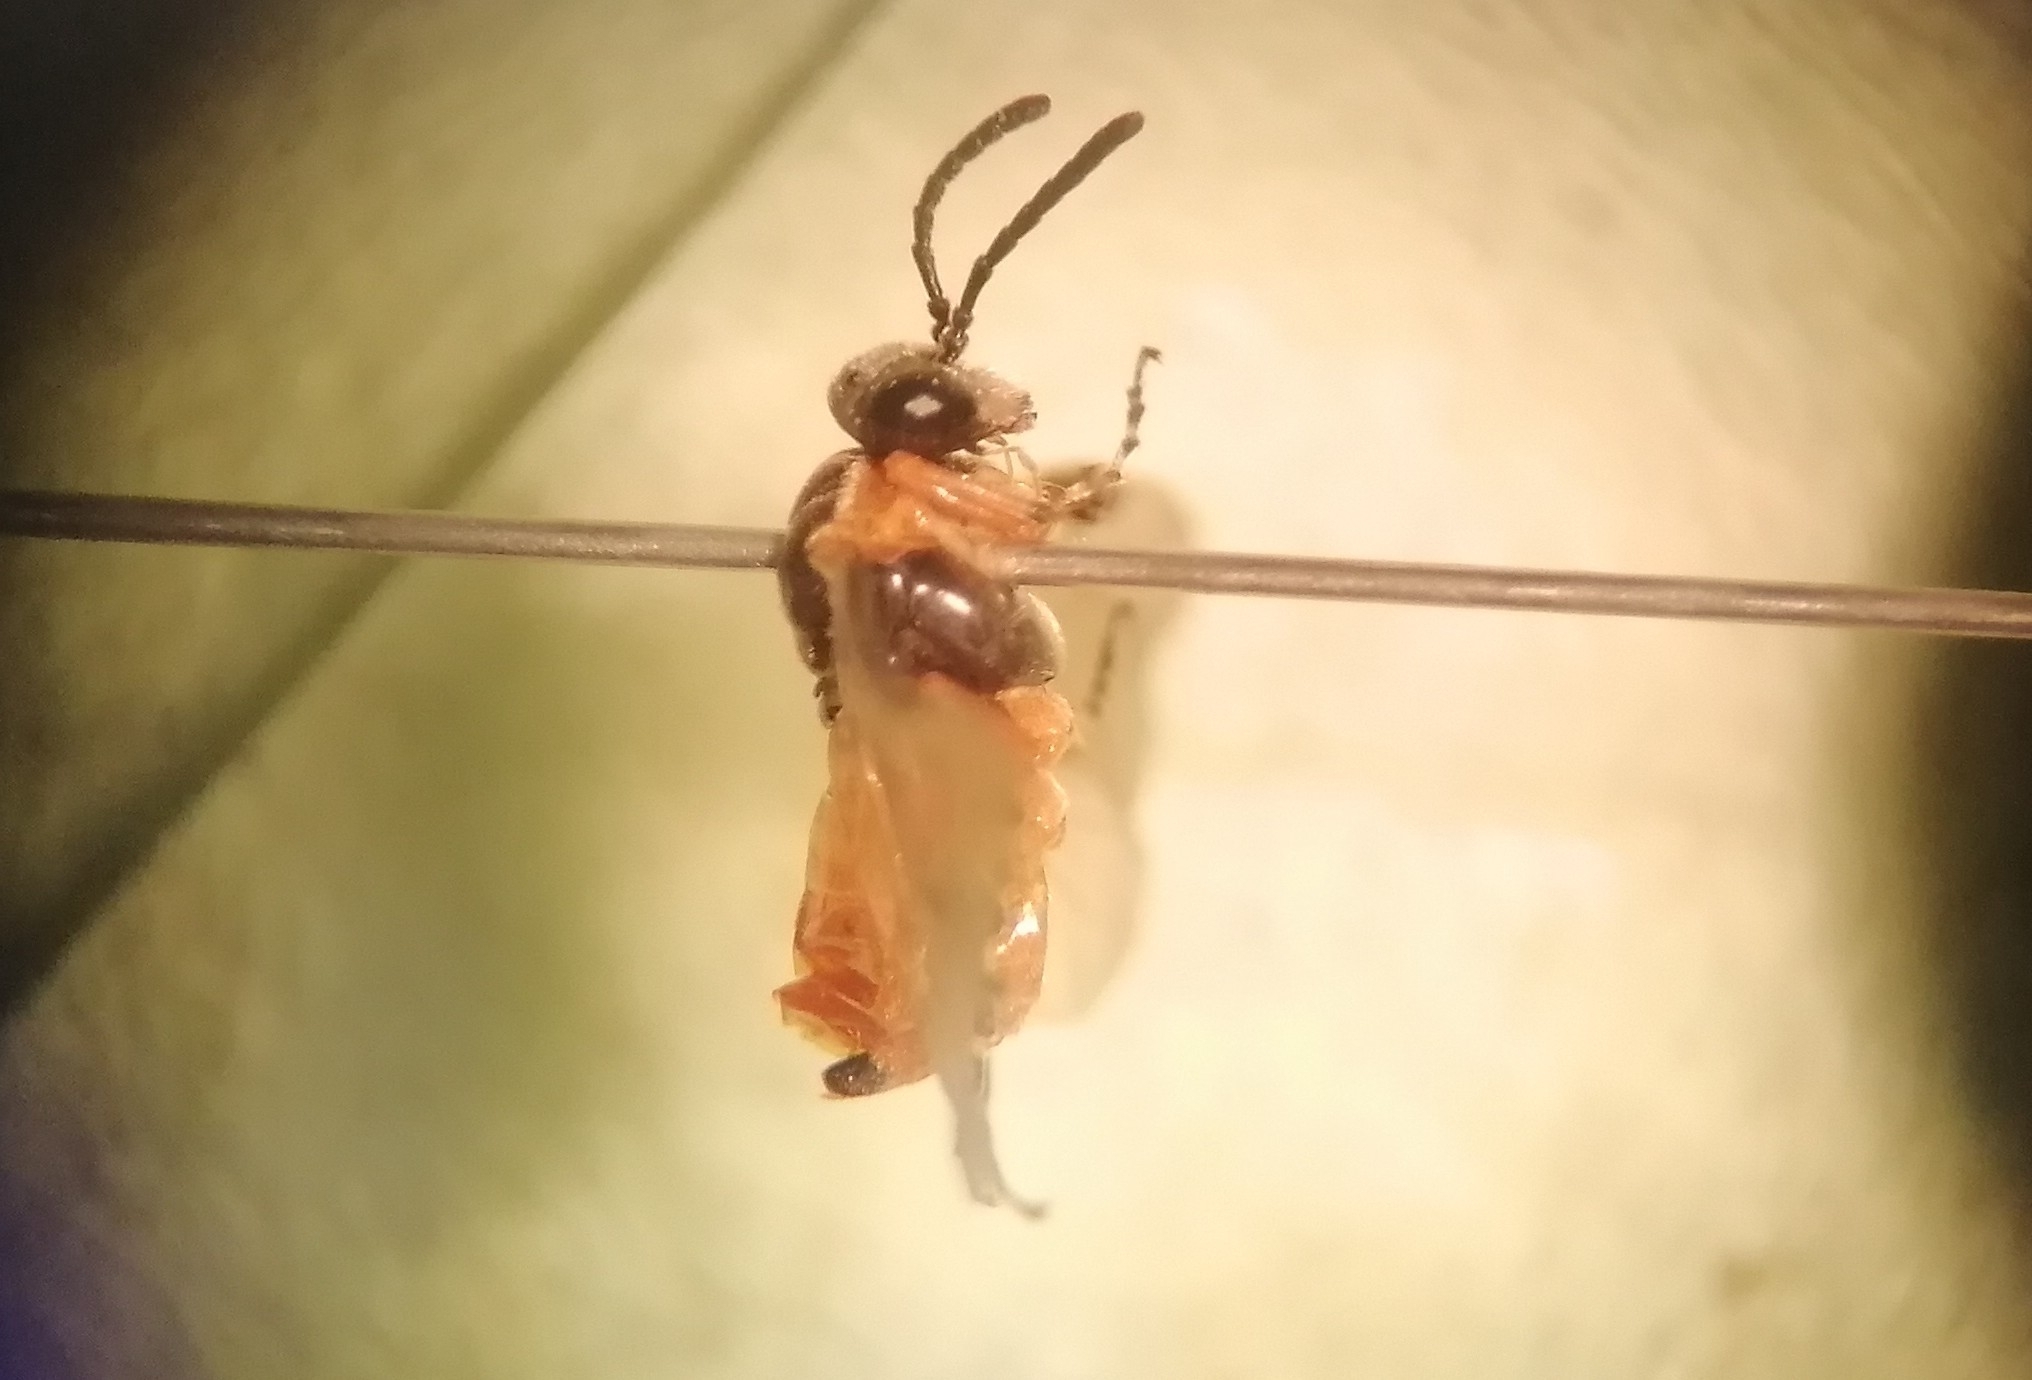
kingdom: Animalia
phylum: Arthropoda
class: Insecta
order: Hymenoptera
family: Tenthredinidae
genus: Athalia
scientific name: Athalia cordata
